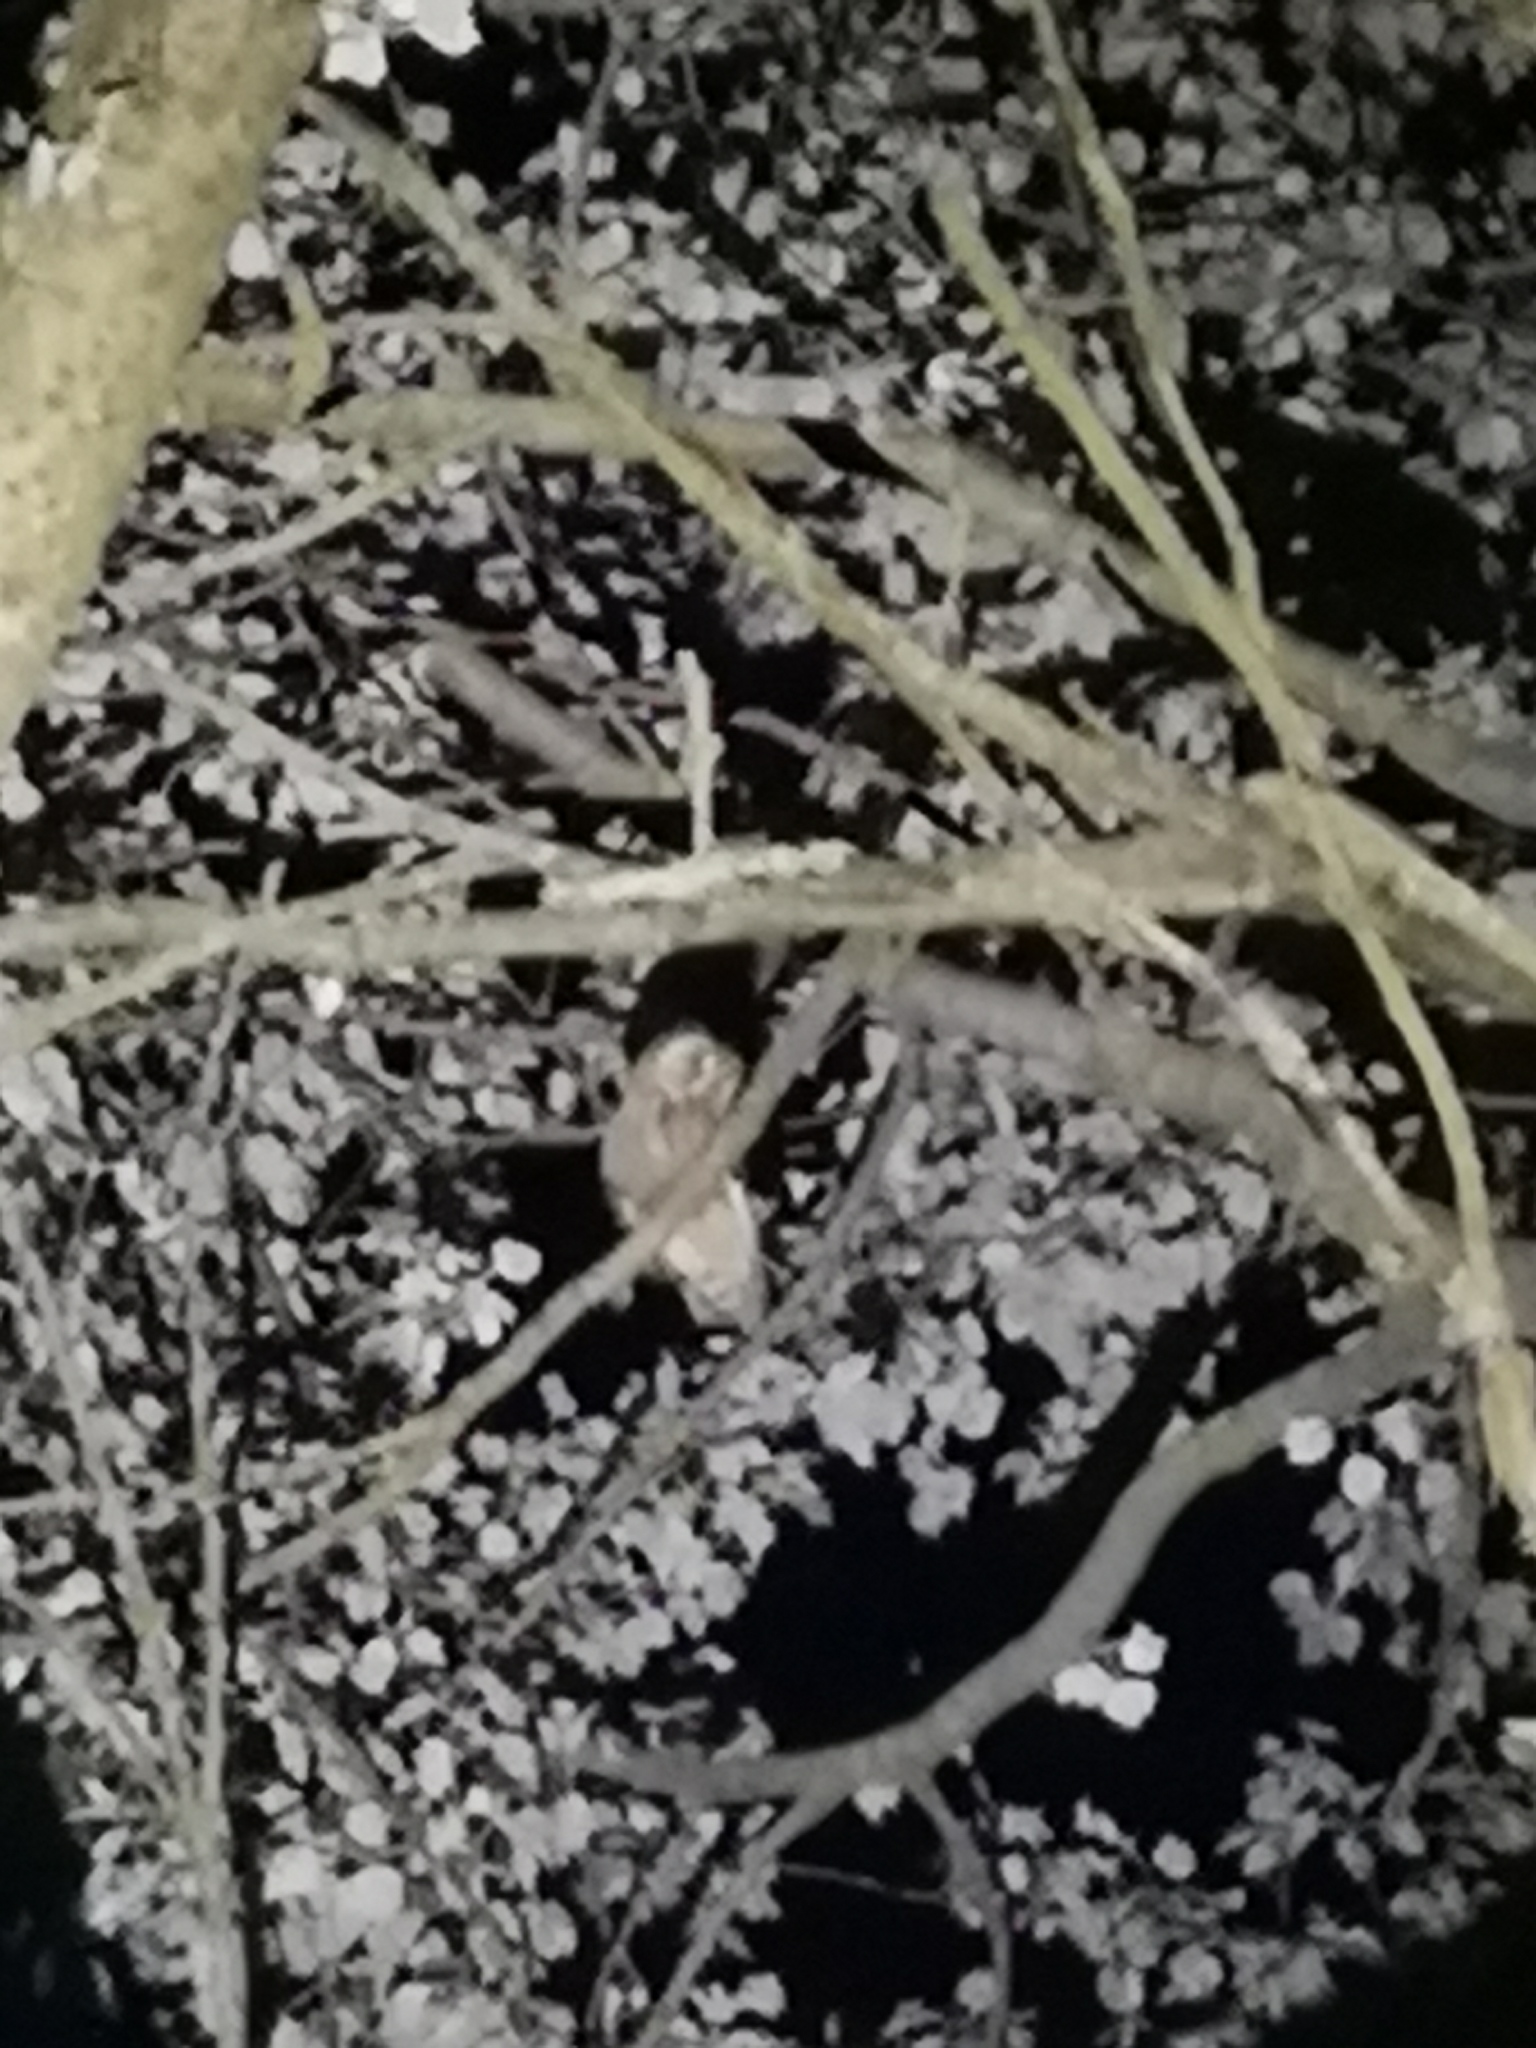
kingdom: Animalia
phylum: Chordata
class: Aves
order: Strigiformes
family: Strigidae
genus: Asio
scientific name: Asio otus
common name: Long-eared owl
